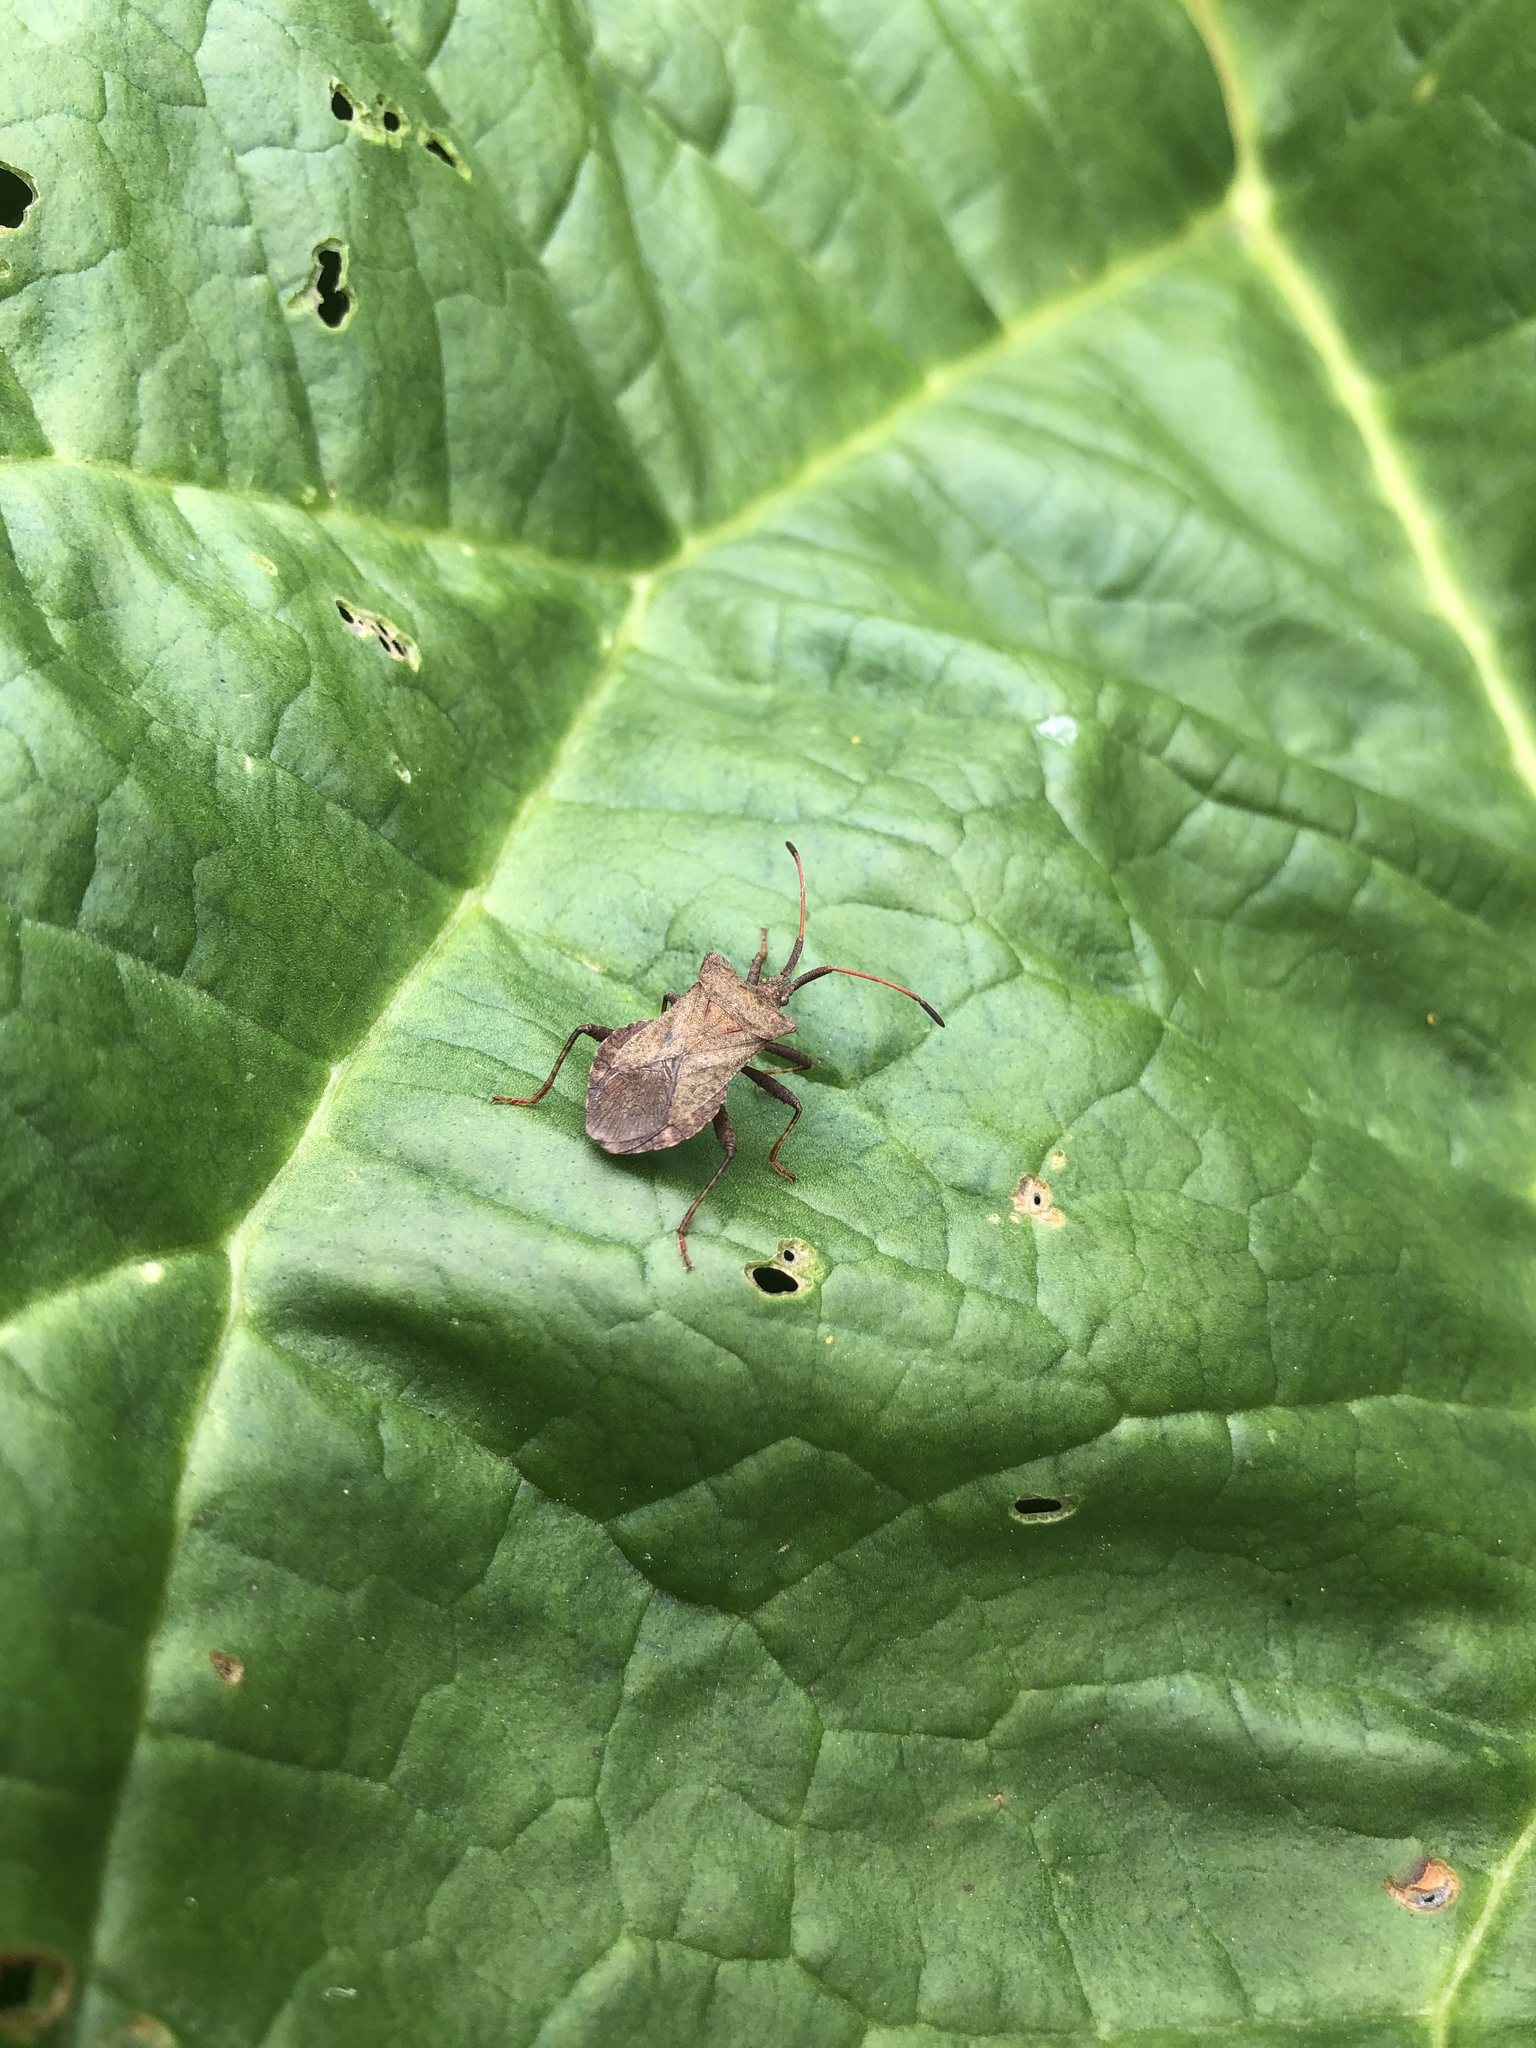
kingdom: Animalia
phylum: Arthropoda
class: Insecta
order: Hemiptera
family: Coreidae
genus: Coreus
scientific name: Coreus marginatus
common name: Dock bug
